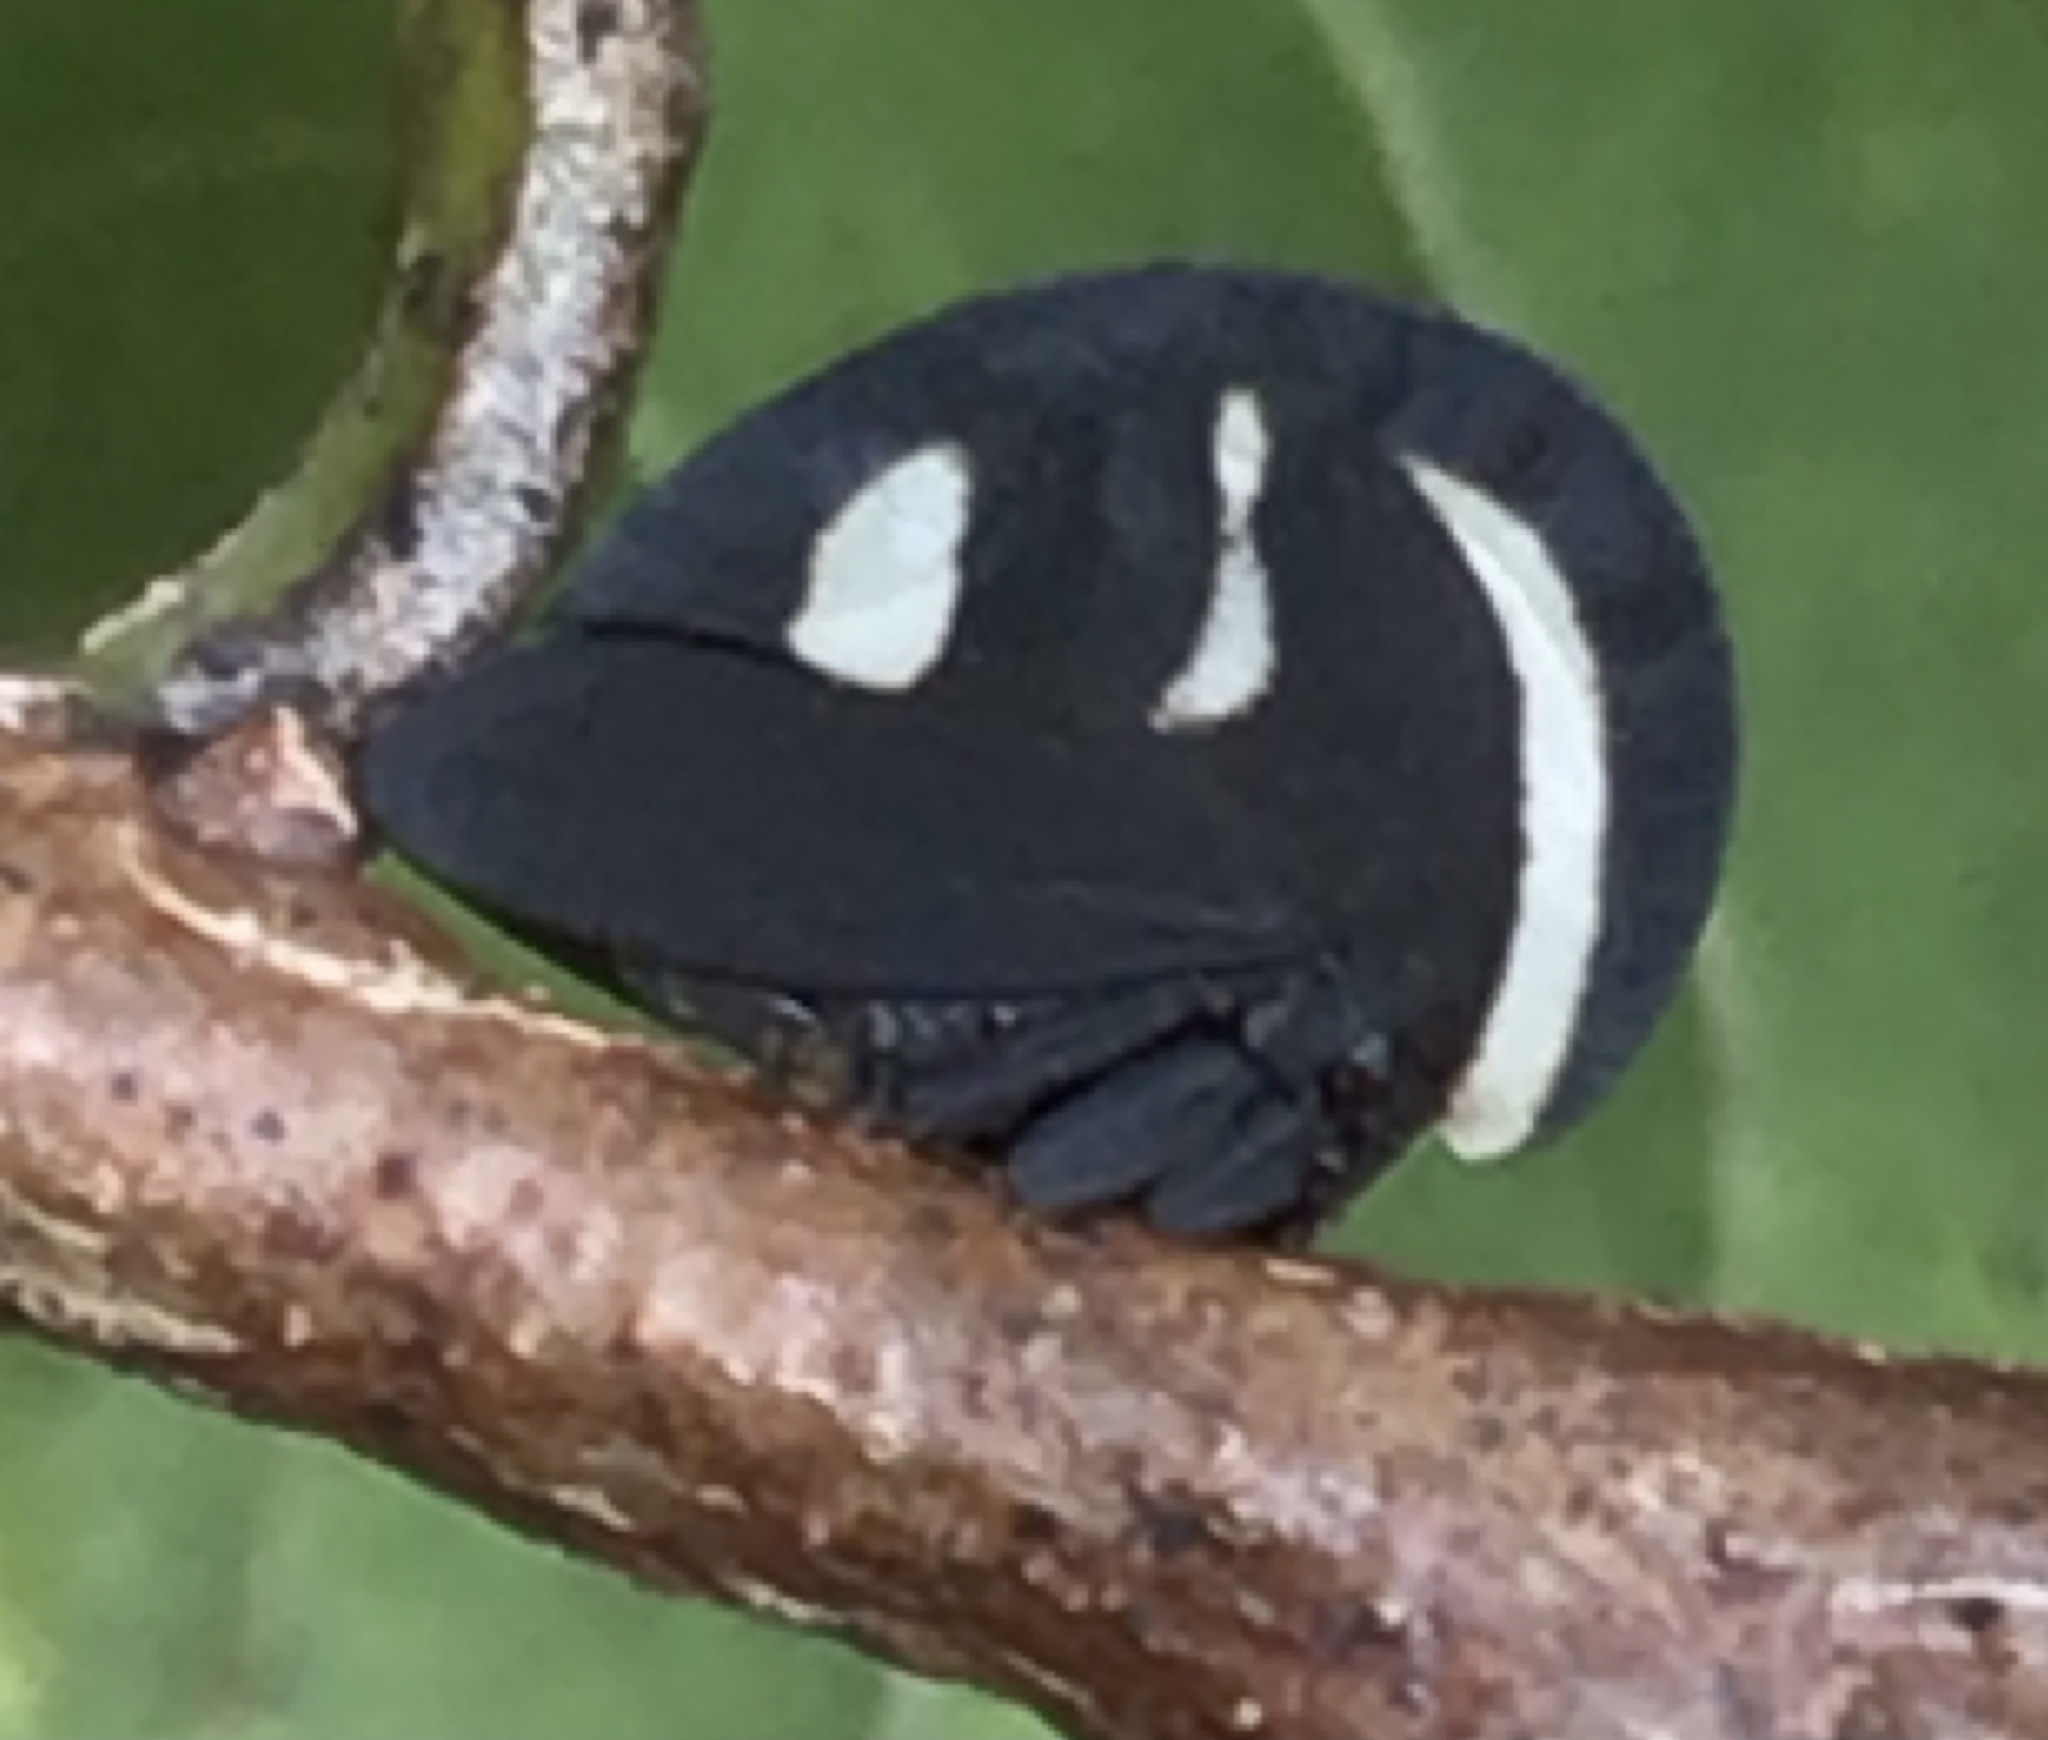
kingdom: Animalia
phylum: Arthropoda
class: Insecta
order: Hemiptera
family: Membracidae
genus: Membracis
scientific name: Membracis
